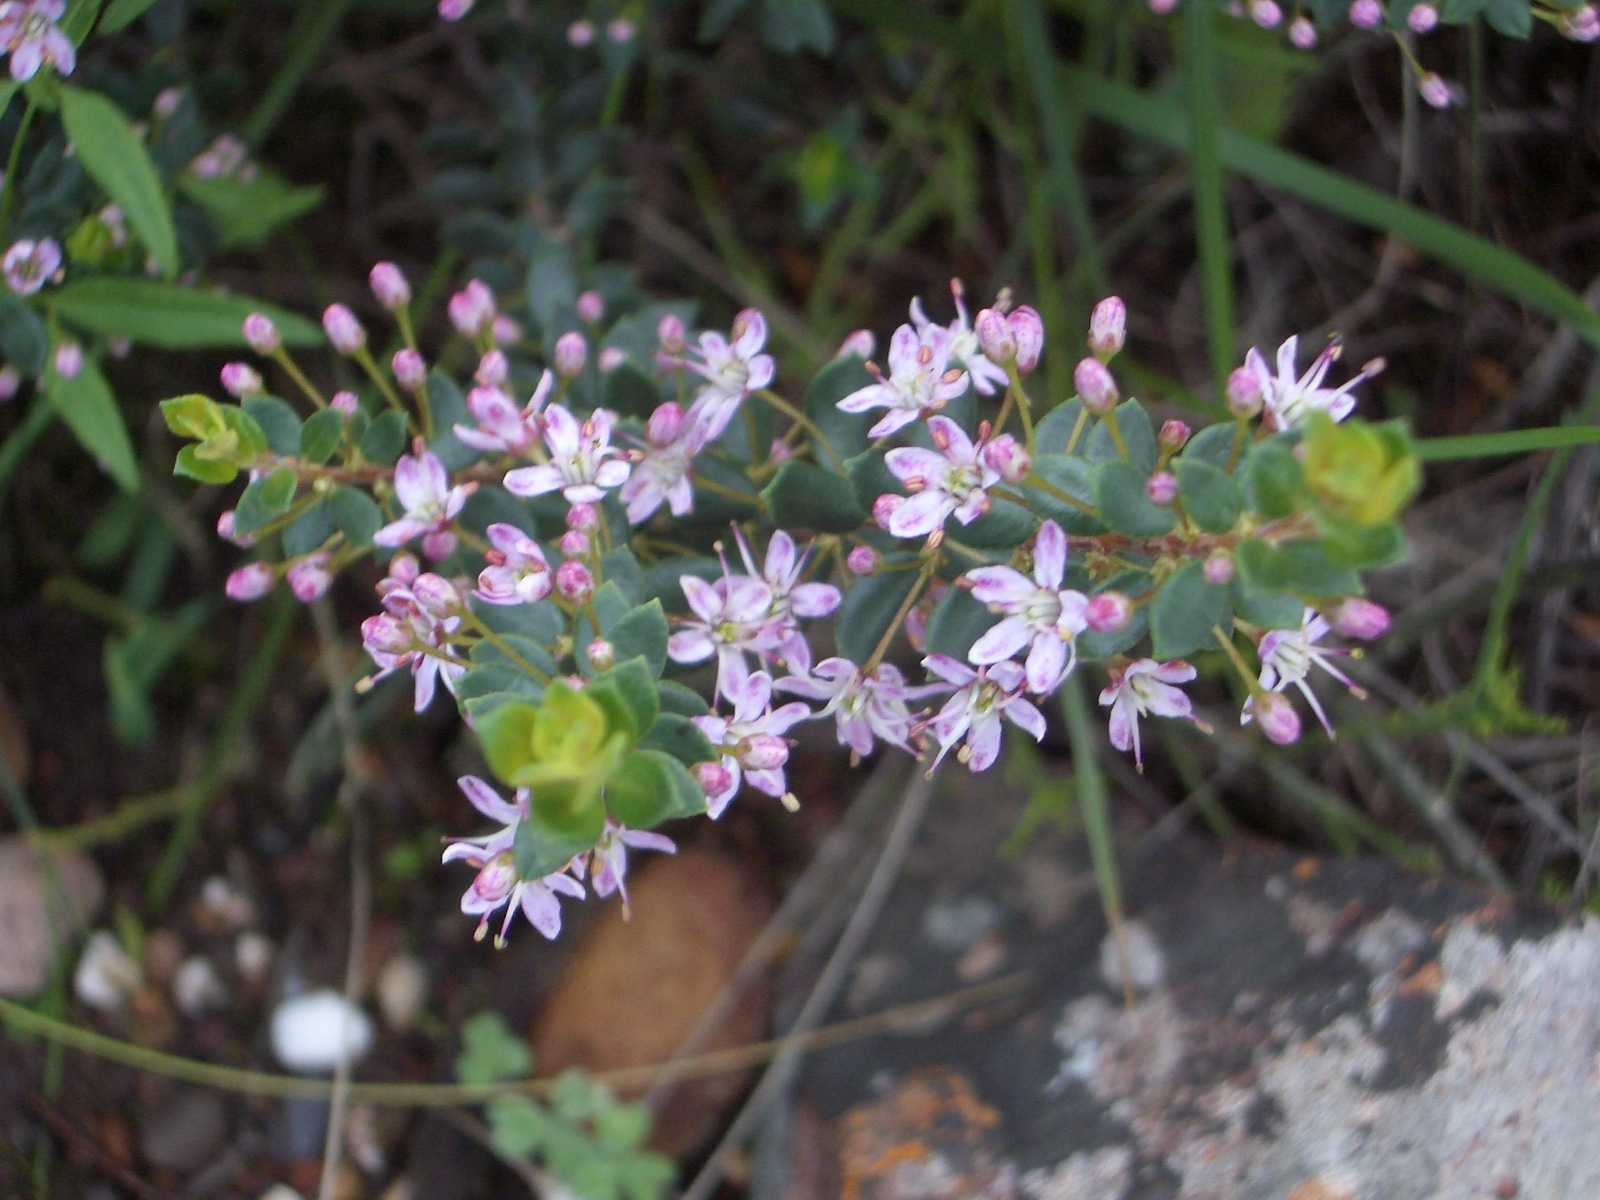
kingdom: Plantae
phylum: Tracheophyta
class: Magnoliopsida
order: Sapindales
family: Rutaceae
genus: Agathosma
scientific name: Agathosma ovata
